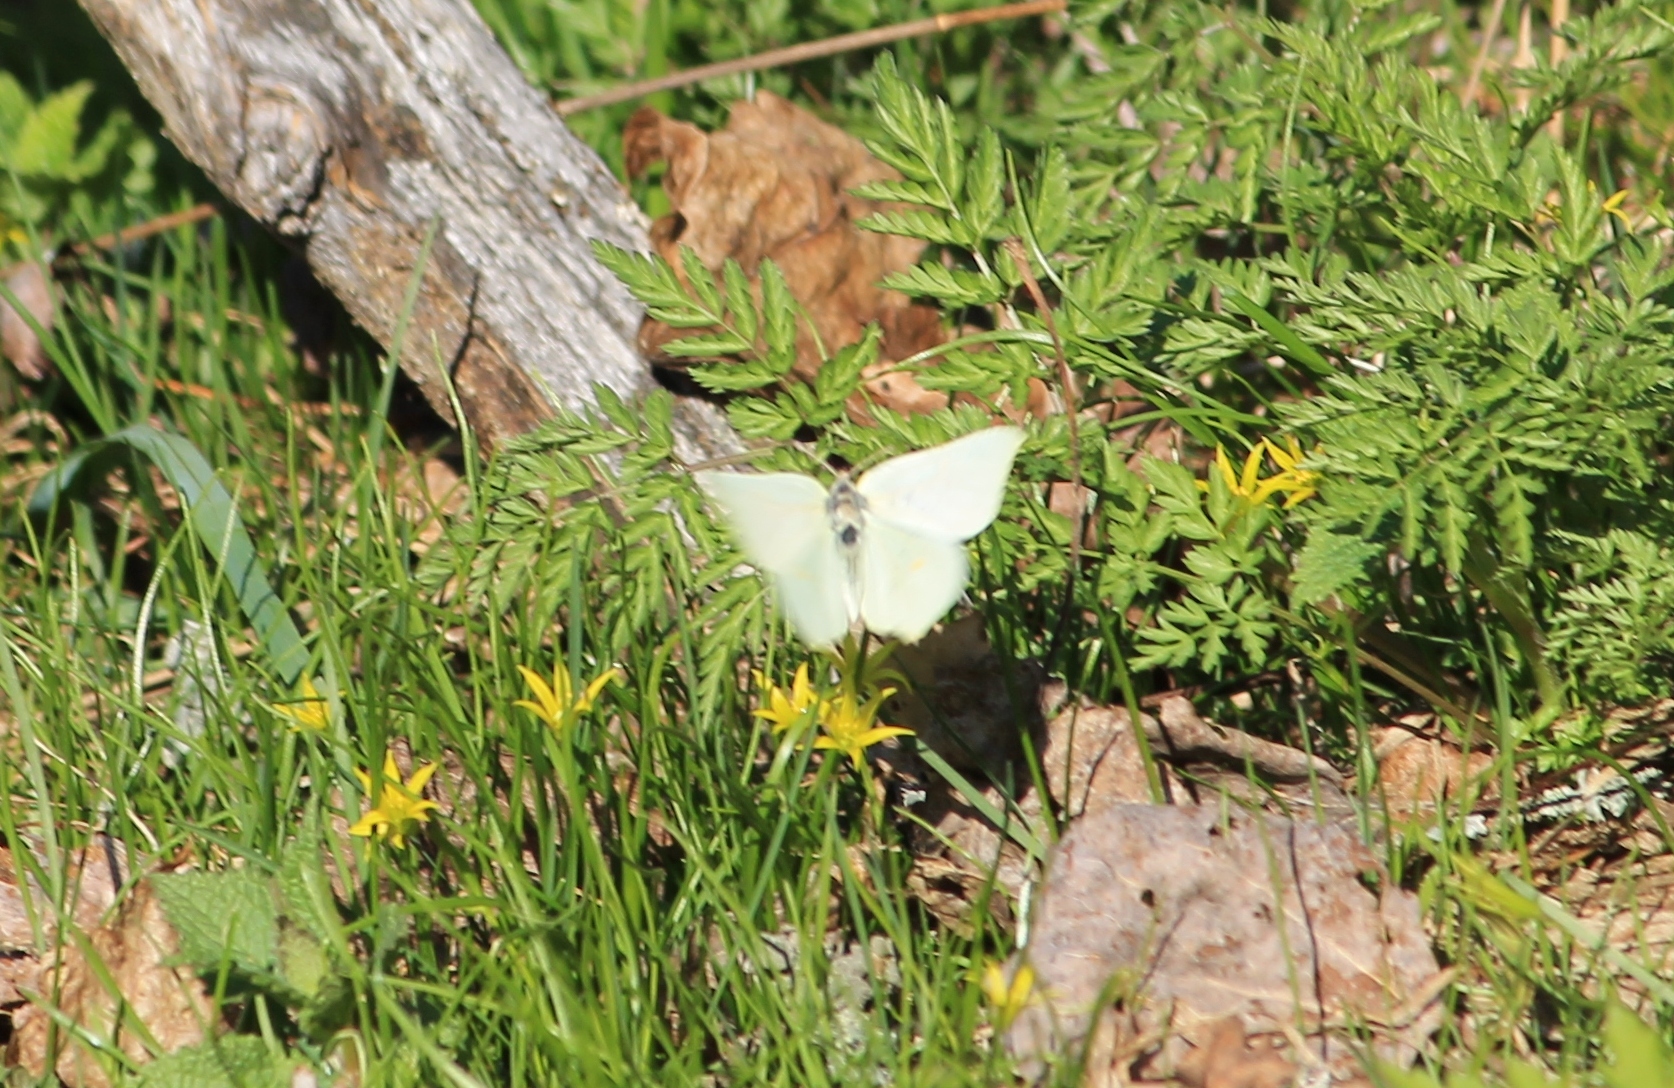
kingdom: Animalia
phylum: Arthropoda
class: Insecta
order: Lepidoptera
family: Pieridae
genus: Gonepteryx
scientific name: Gonepteryx rhamni
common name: Brimstone
